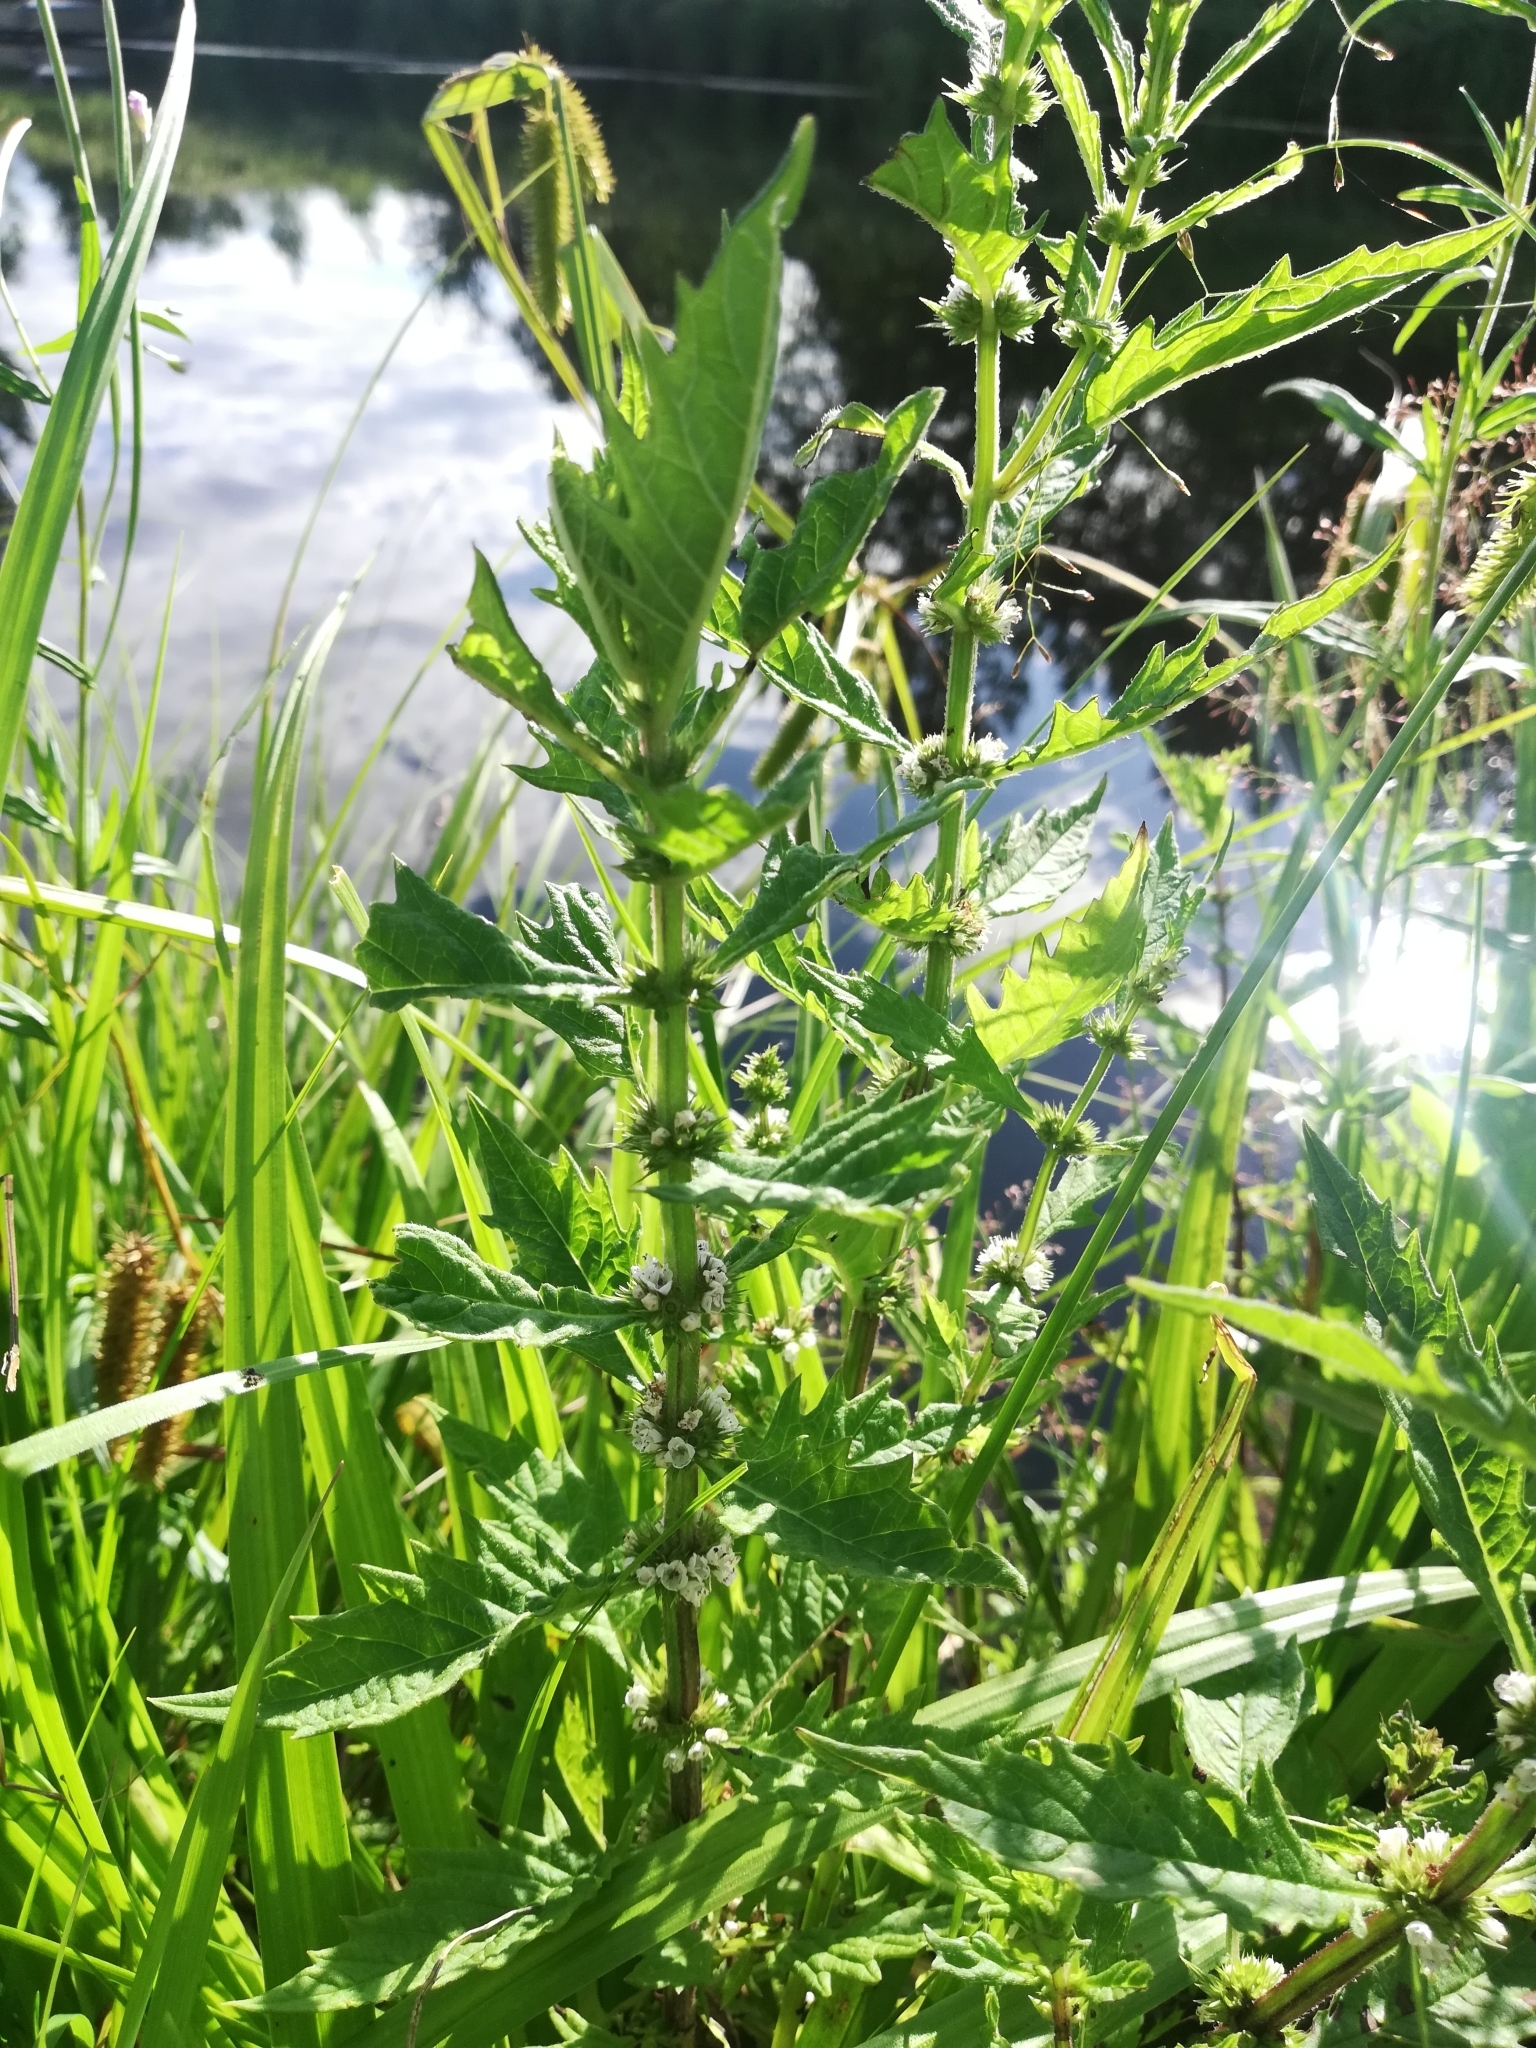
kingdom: Plantae
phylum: Tracheophyta
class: Magnoliopsida
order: Lamiales
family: Lamiaceae
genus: Lycopus
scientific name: Lycopus europaeus
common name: European bugleweed
